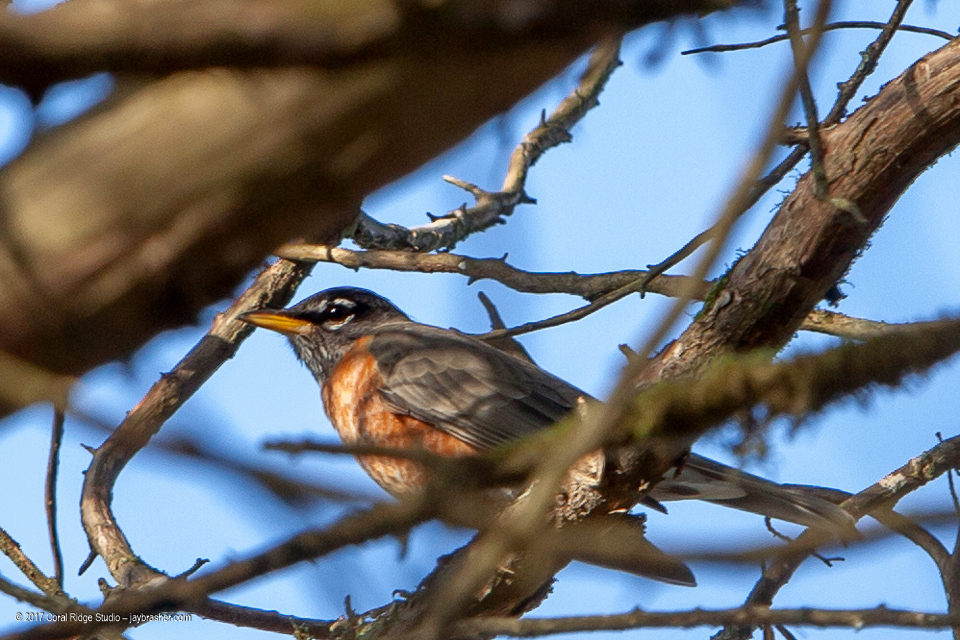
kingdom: Animalia
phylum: Chordata
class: Aves
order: Passeriformes
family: Turdidae
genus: Turdus
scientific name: Turdus migratorius
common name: American robin
